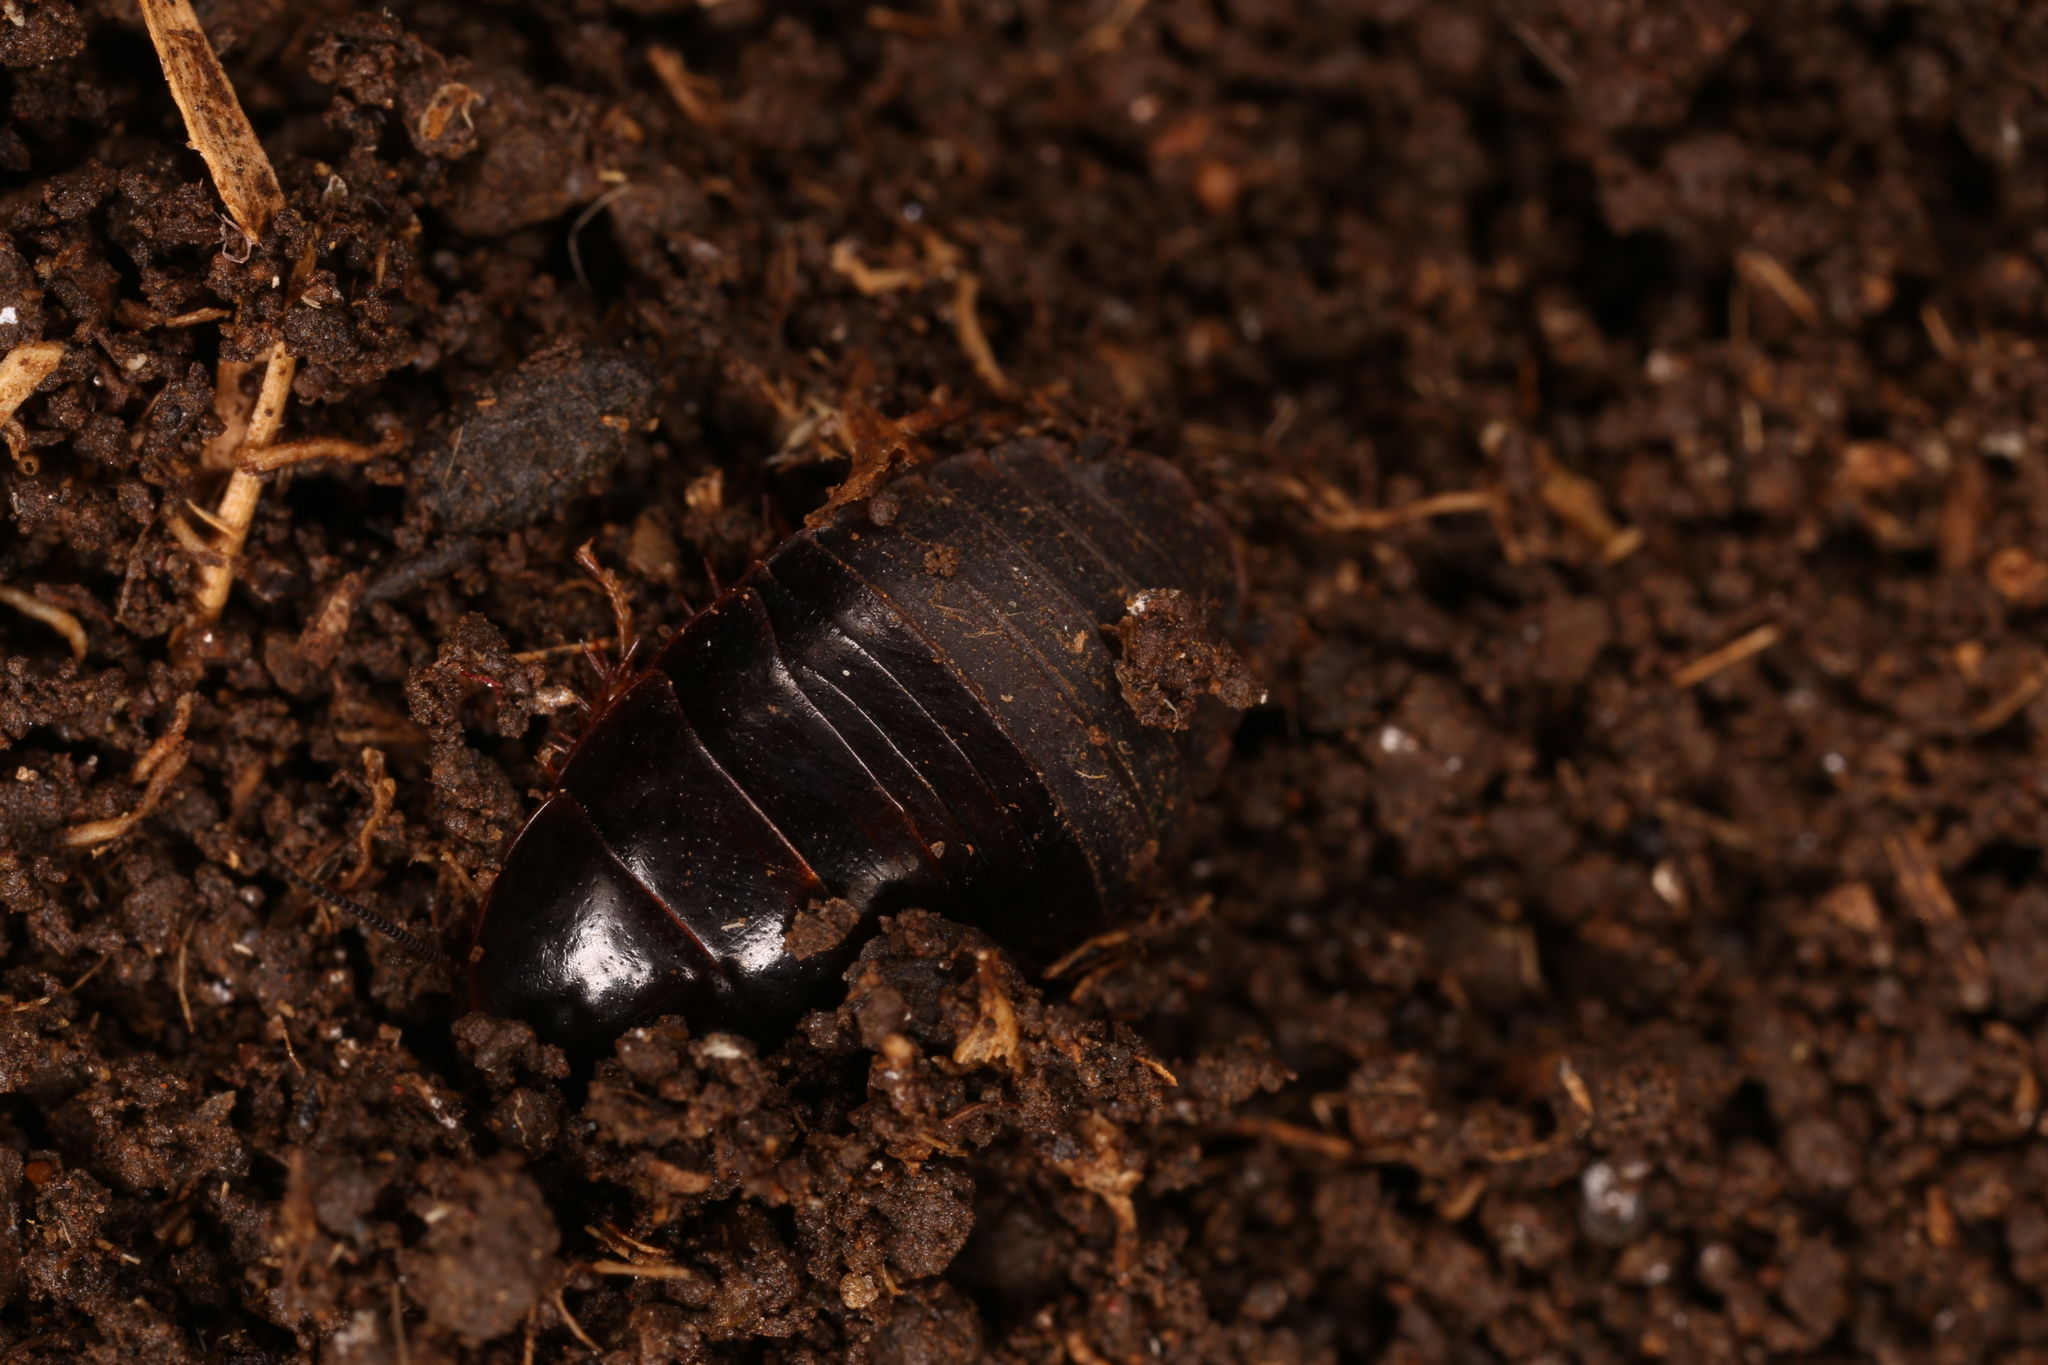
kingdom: Animalia
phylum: Arthropoda
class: Insecta
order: Blattodea
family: Blaberidae
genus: Pycnoscelus
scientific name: Pycnoscelus surinamensis
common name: Surinam cockroach
